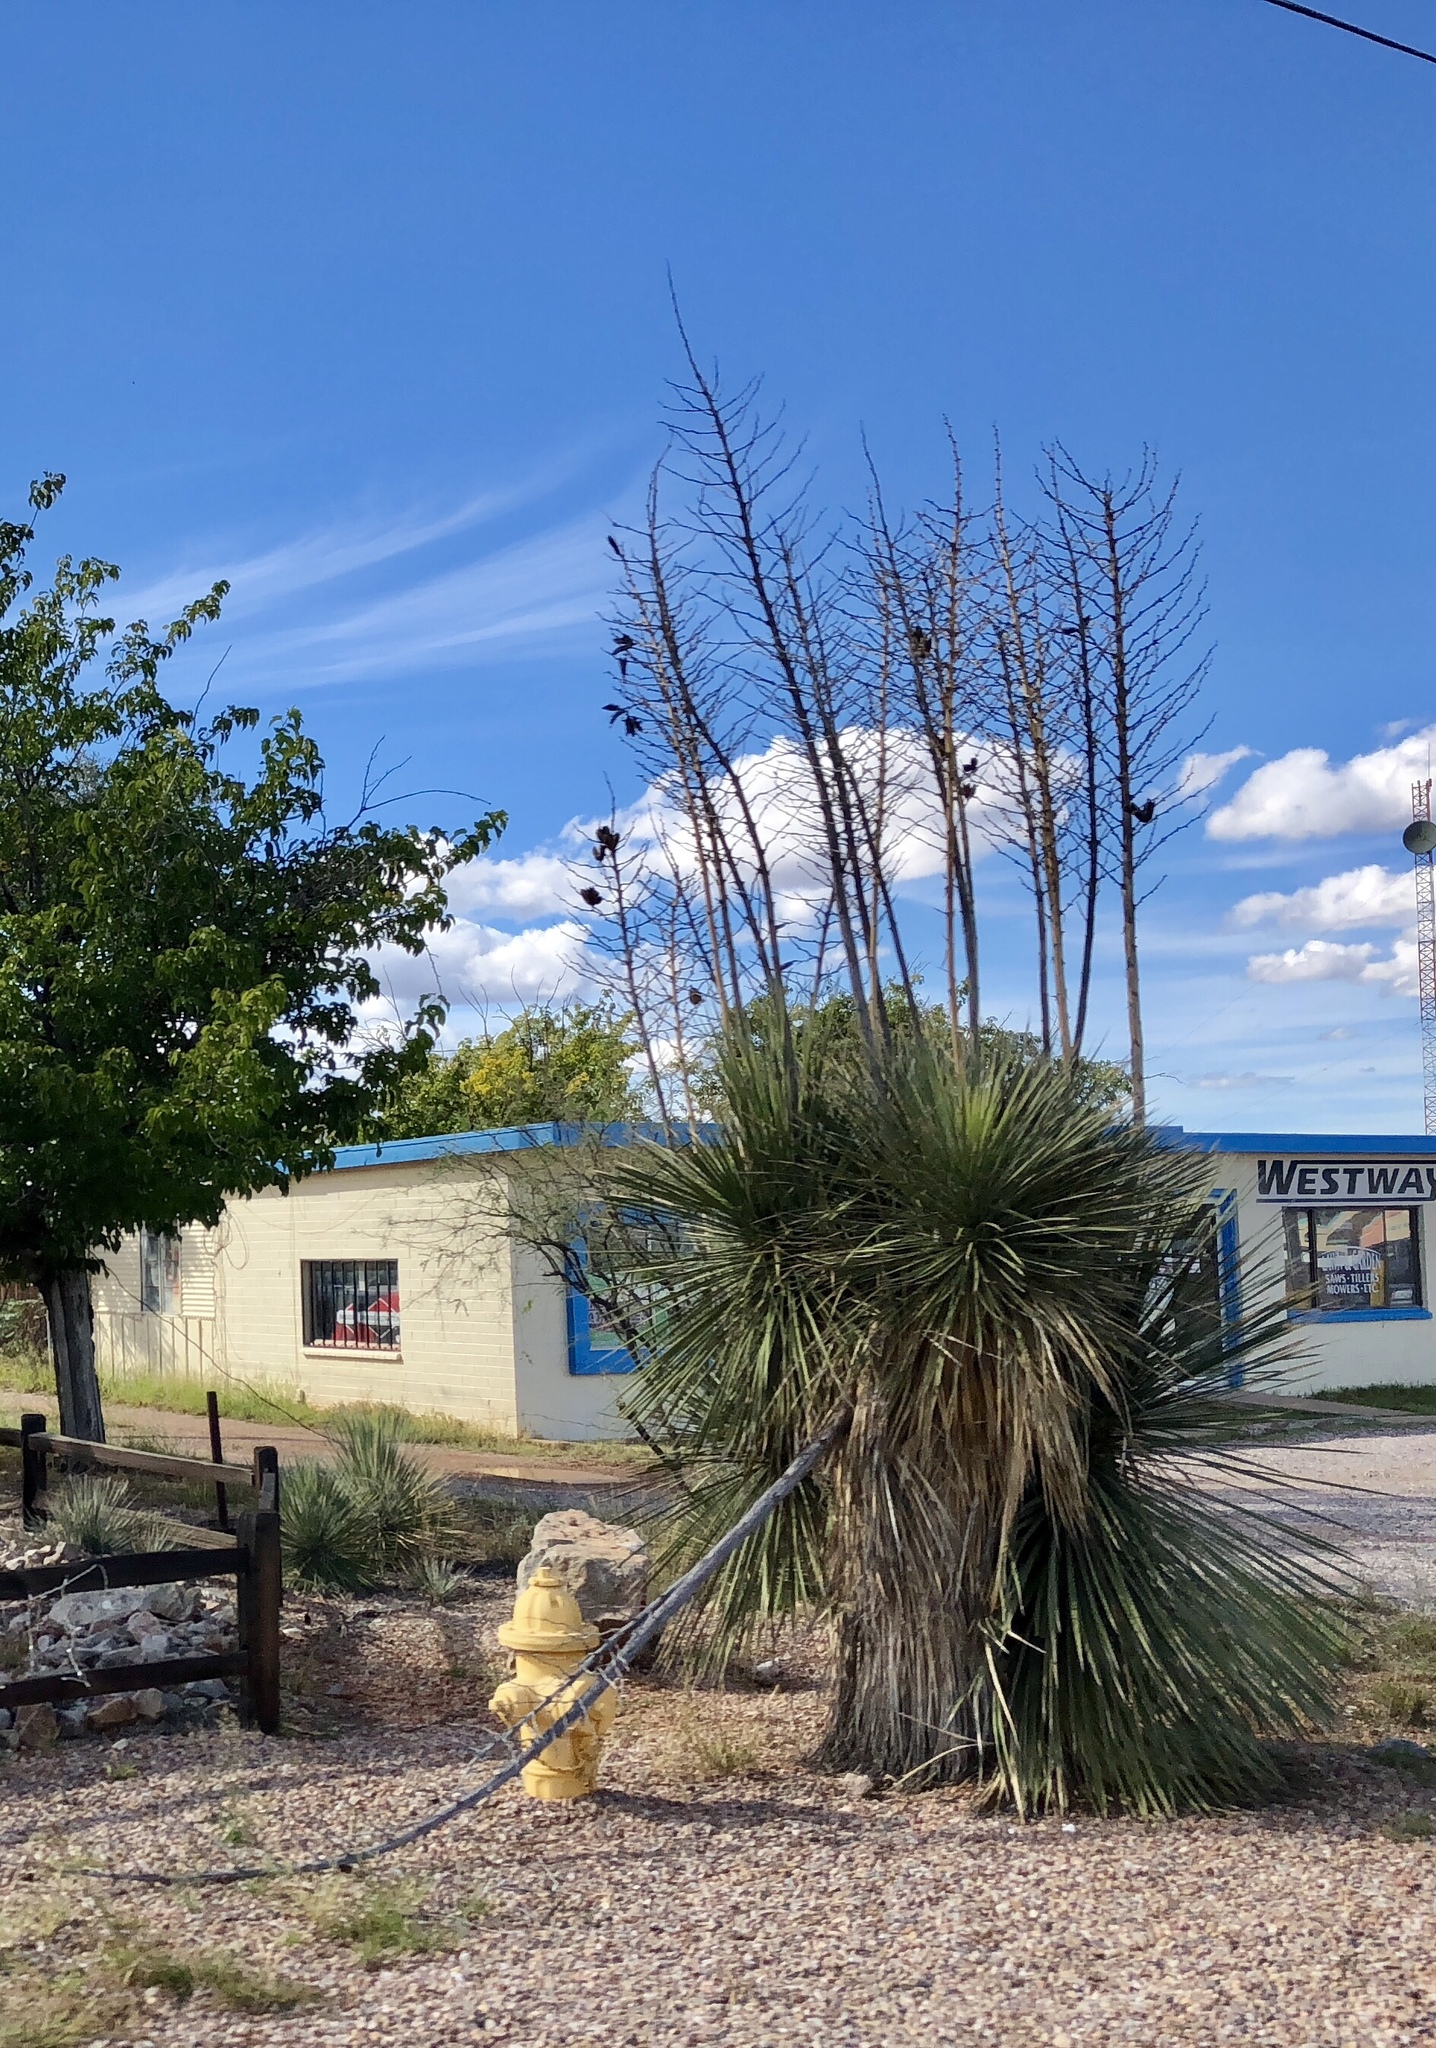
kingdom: Plantae
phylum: Tracheophyta
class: Liliopsida
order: Asparagales
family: Asparagaceae
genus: Yucca
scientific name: Yucca elata
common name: Palmella
